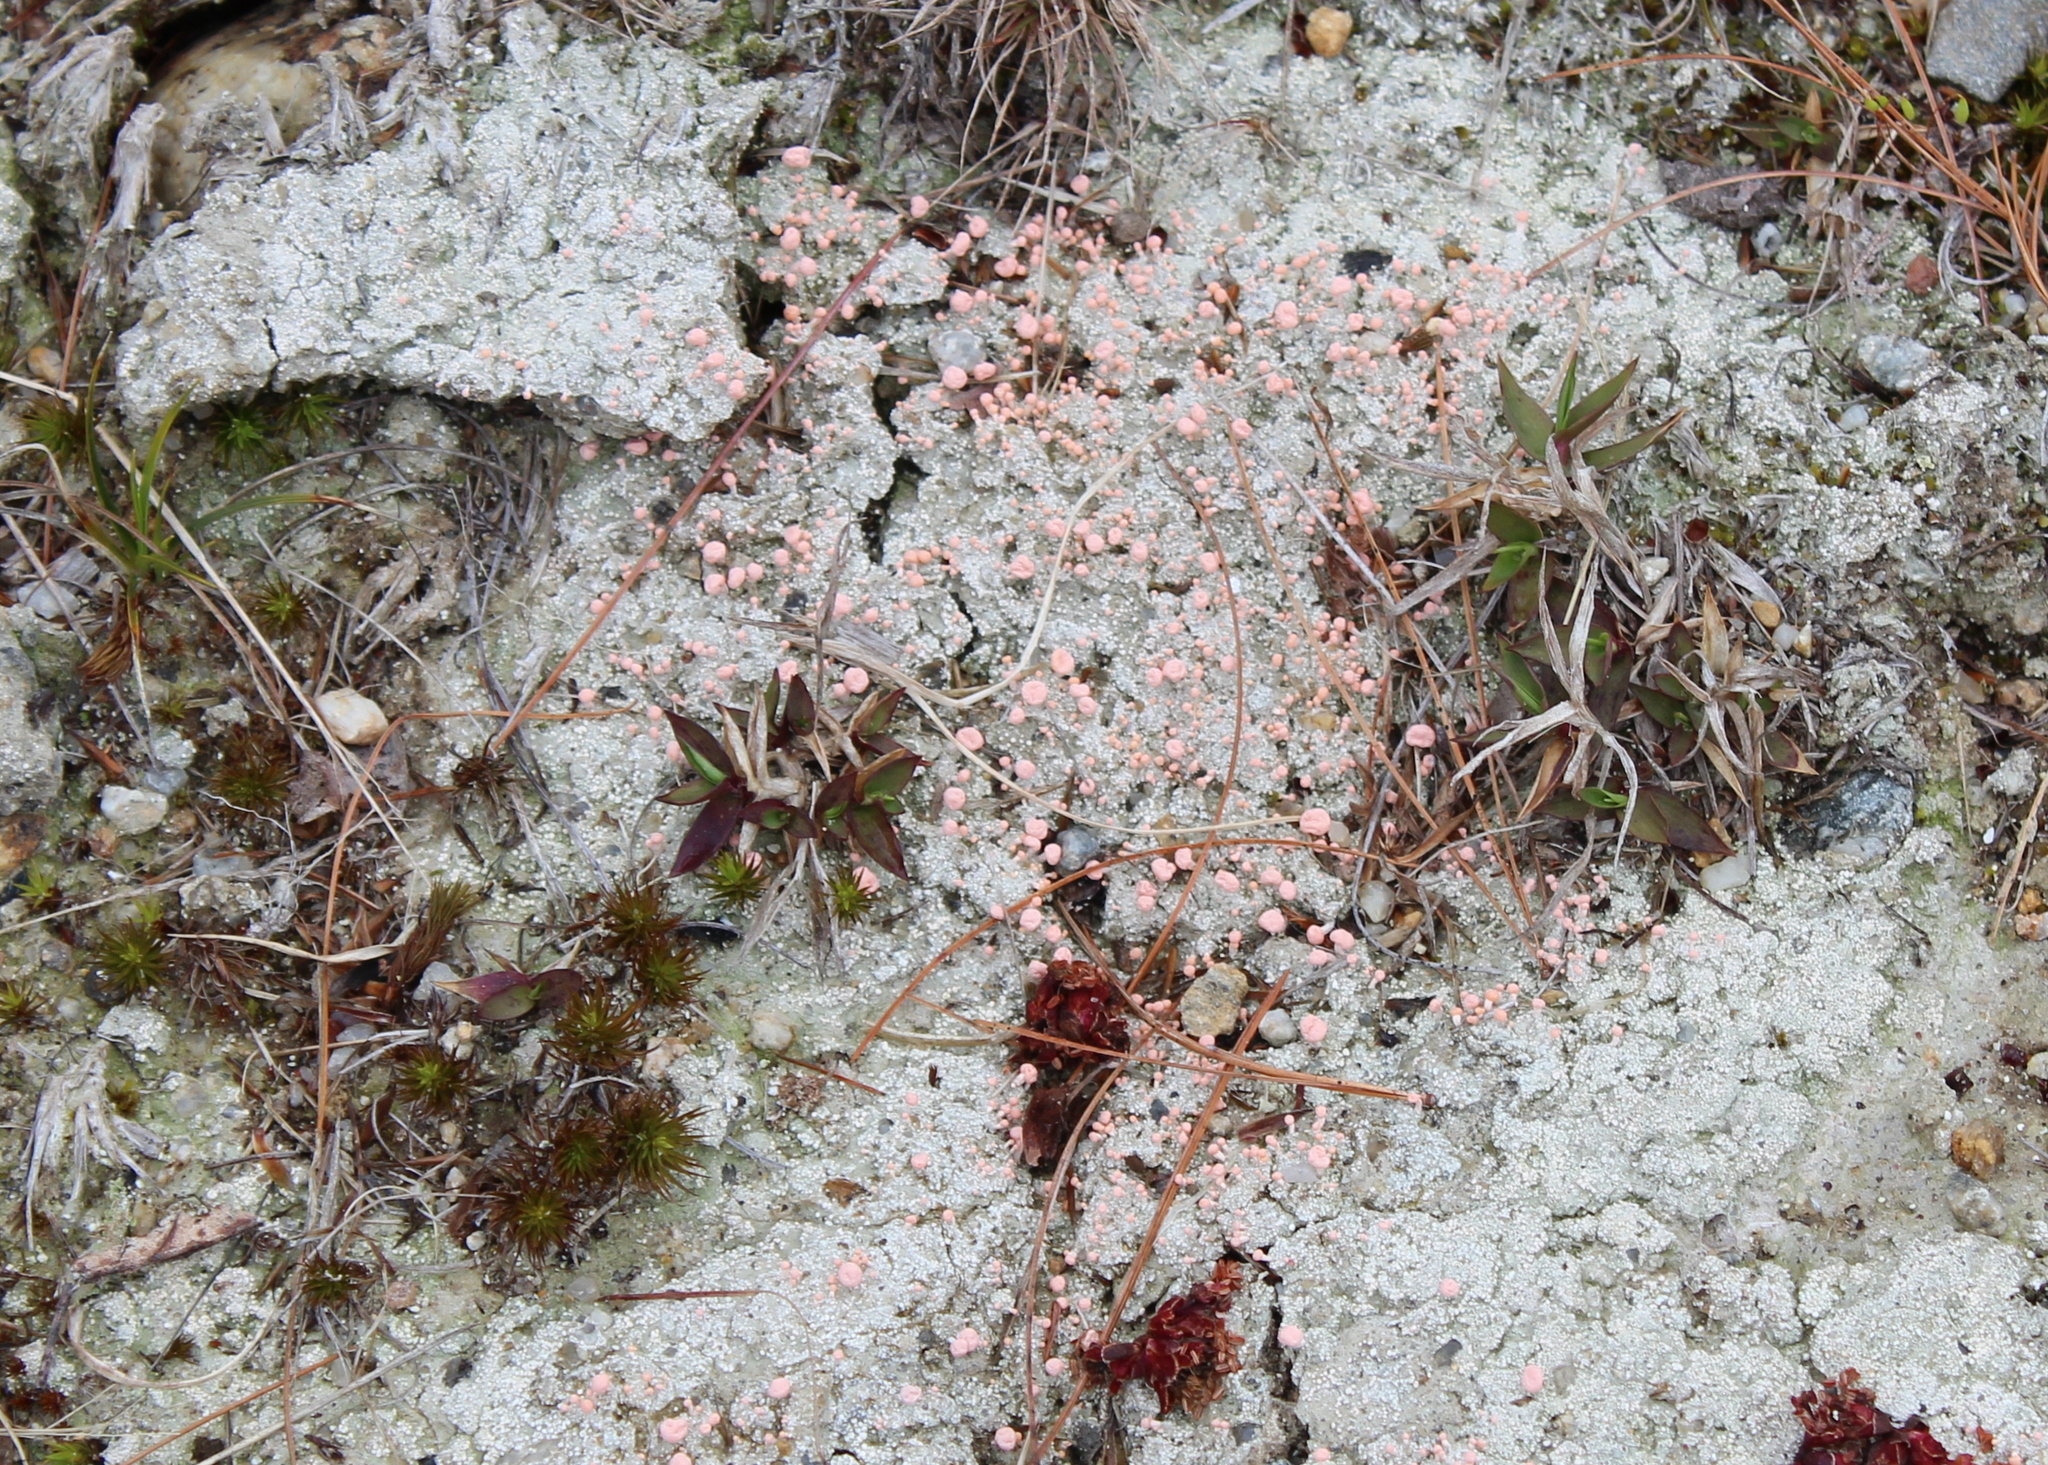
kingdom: Fungi
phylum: Ascomycota
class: Lecanoromycetes
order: Pertusariales
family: Icmadophilaceae
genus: Dibaeis
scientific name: Dibaeis baeomyces
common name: Pink earth lichen
